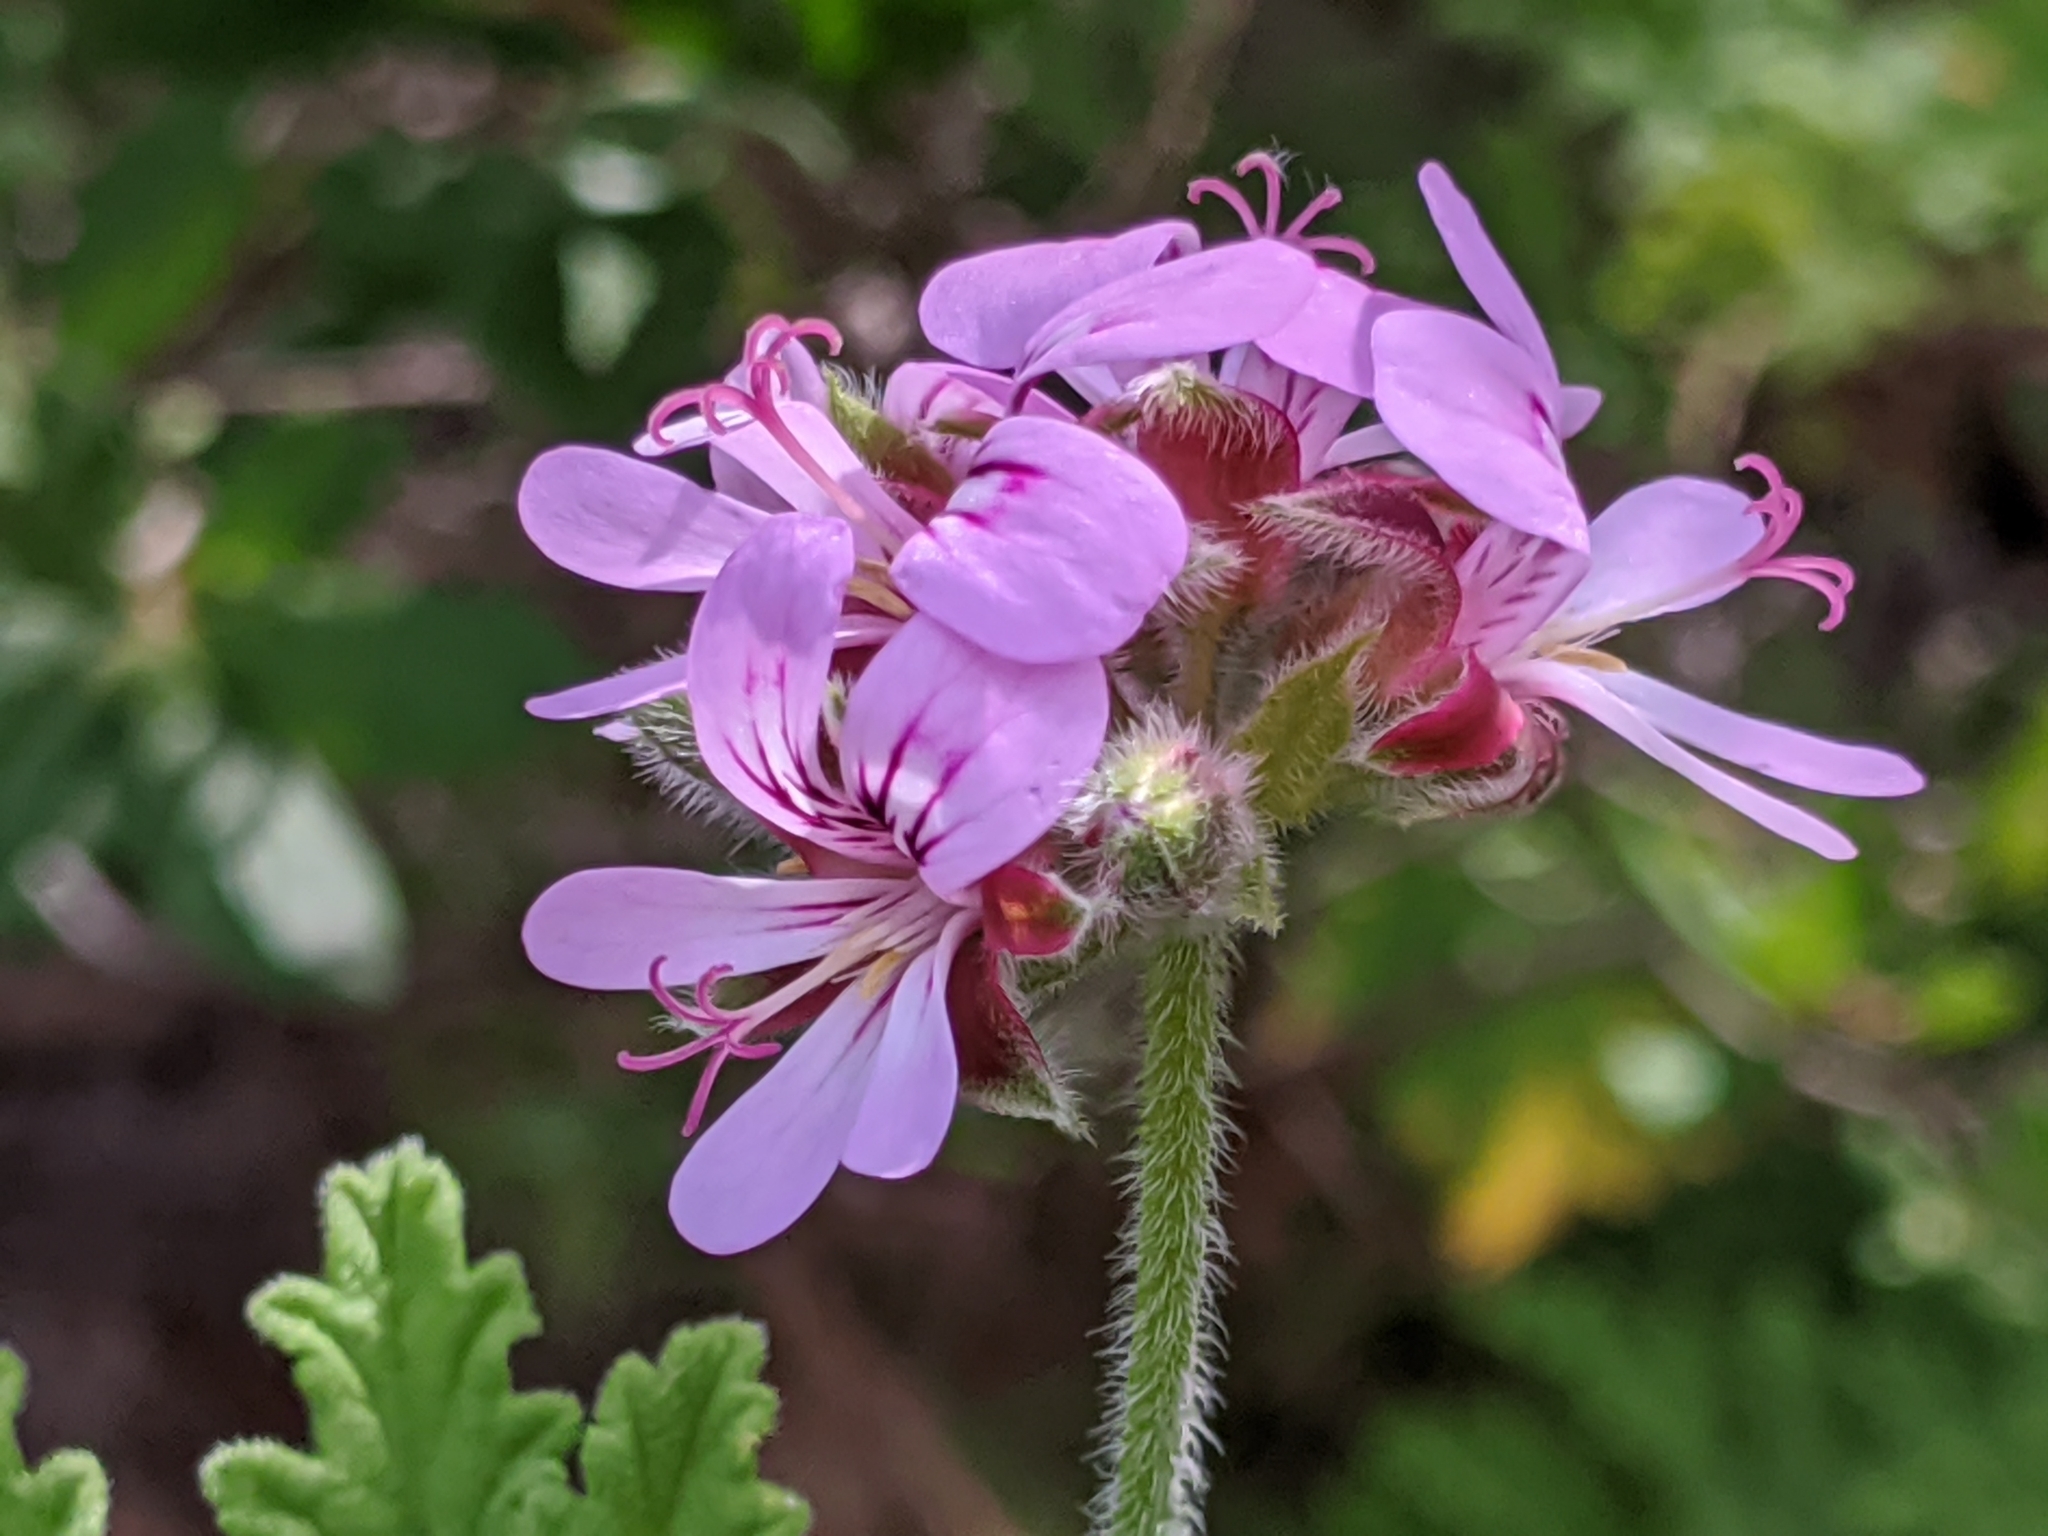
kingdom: Plantae
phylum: Tracheophyta
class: Magnoliopsida
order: Geraniales
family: Geraniaceae
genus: Pelargonium
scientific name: Pelargonium quercifolium
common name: Oakleaf geranium
